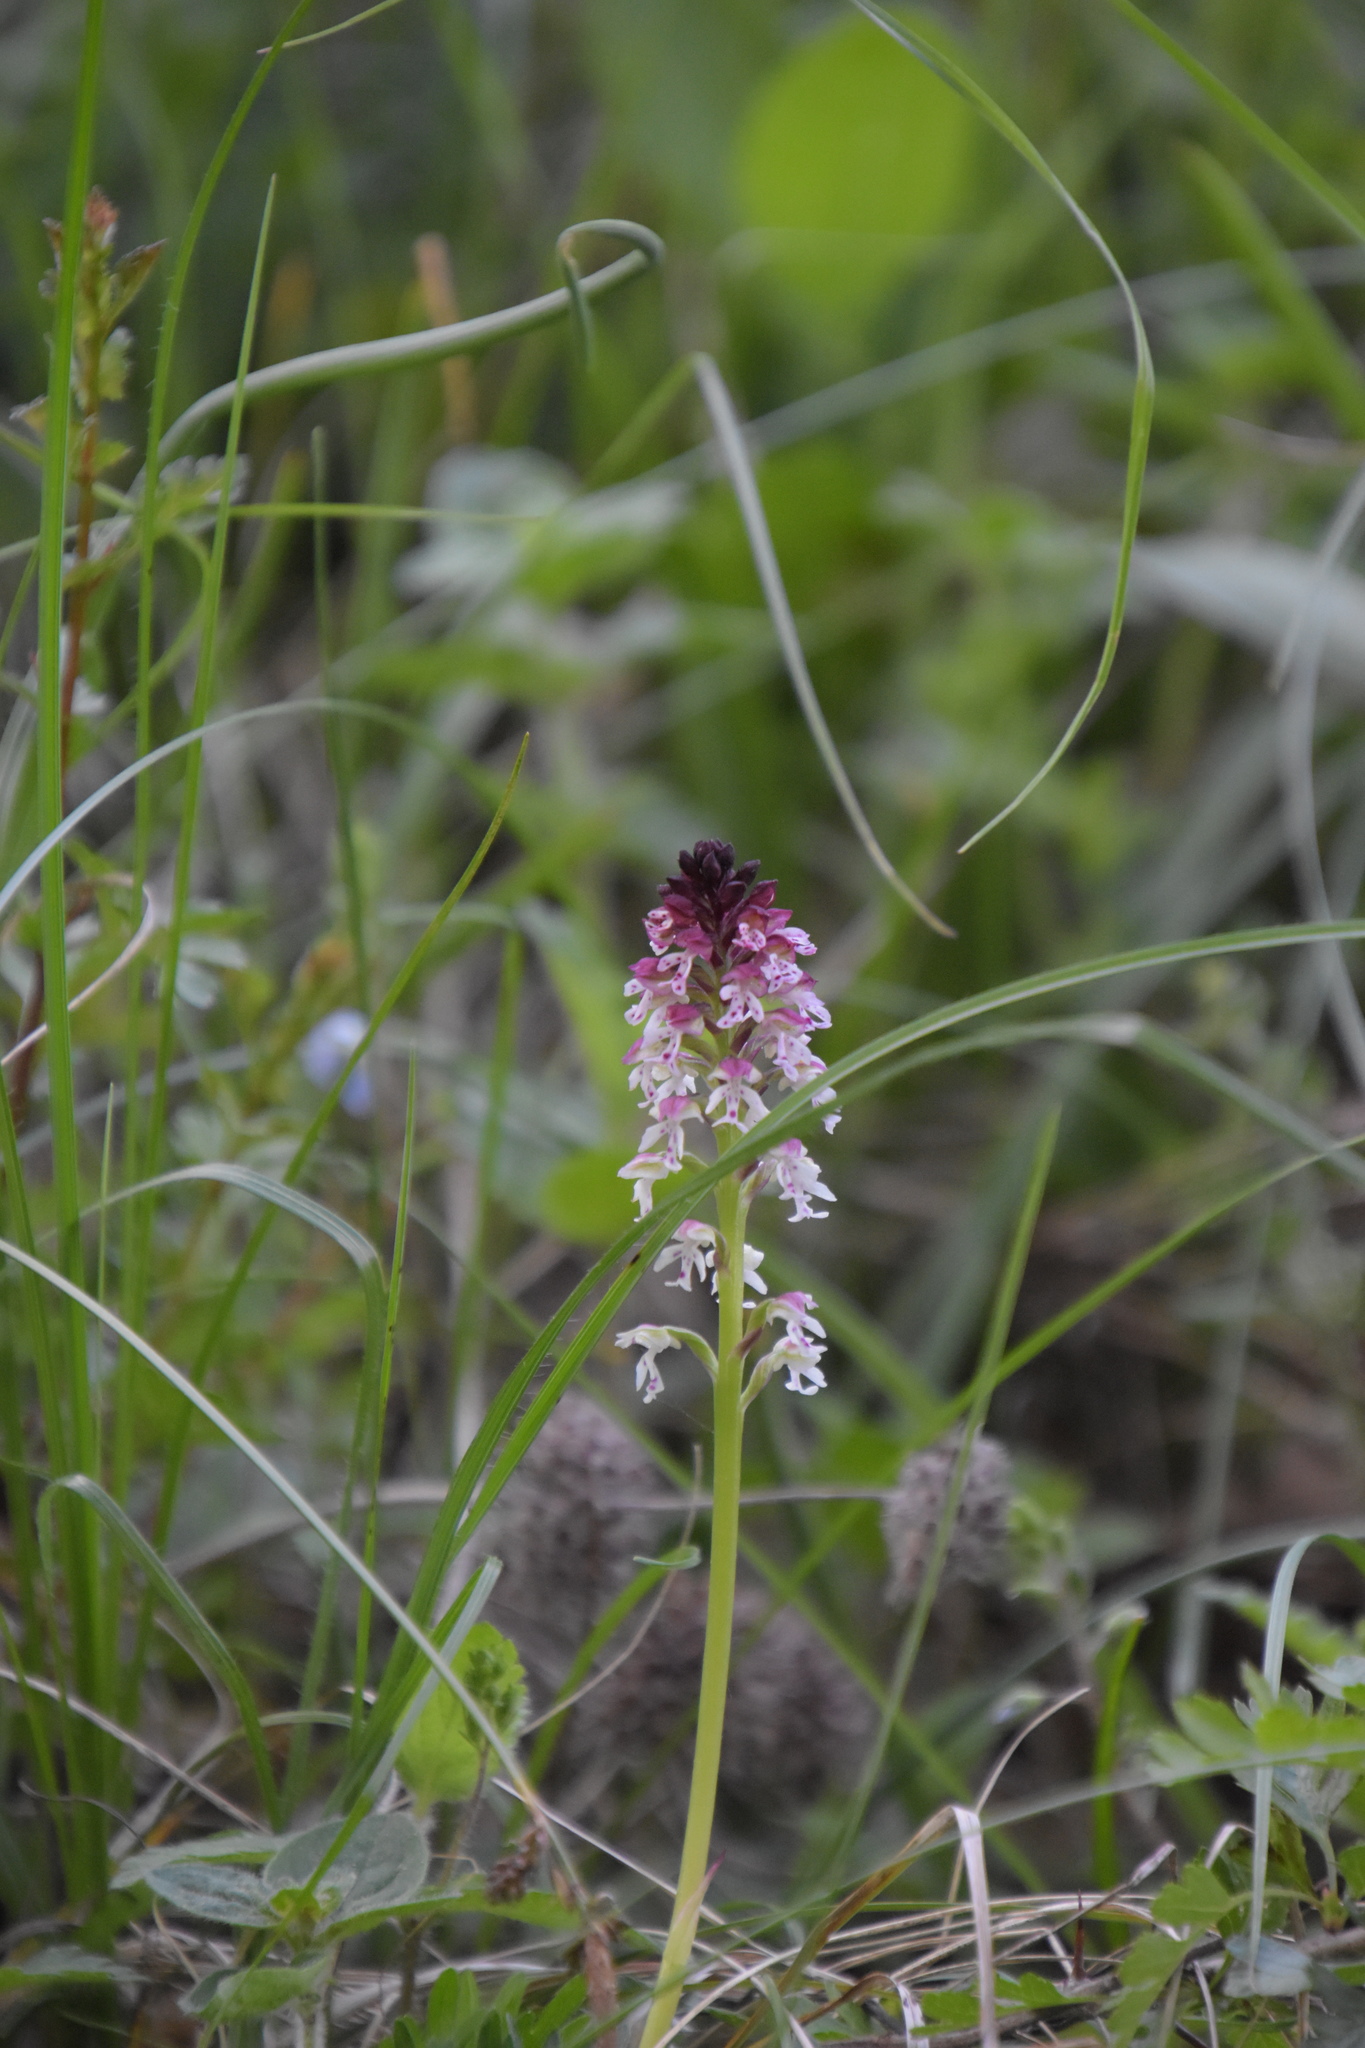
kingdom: Plantae
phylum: Tracheophyta
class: Liliopsida
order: Asparagales
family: Orchidaceae
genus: Neotinea
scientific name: Neotinea ustulata
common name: Burnt orchid
